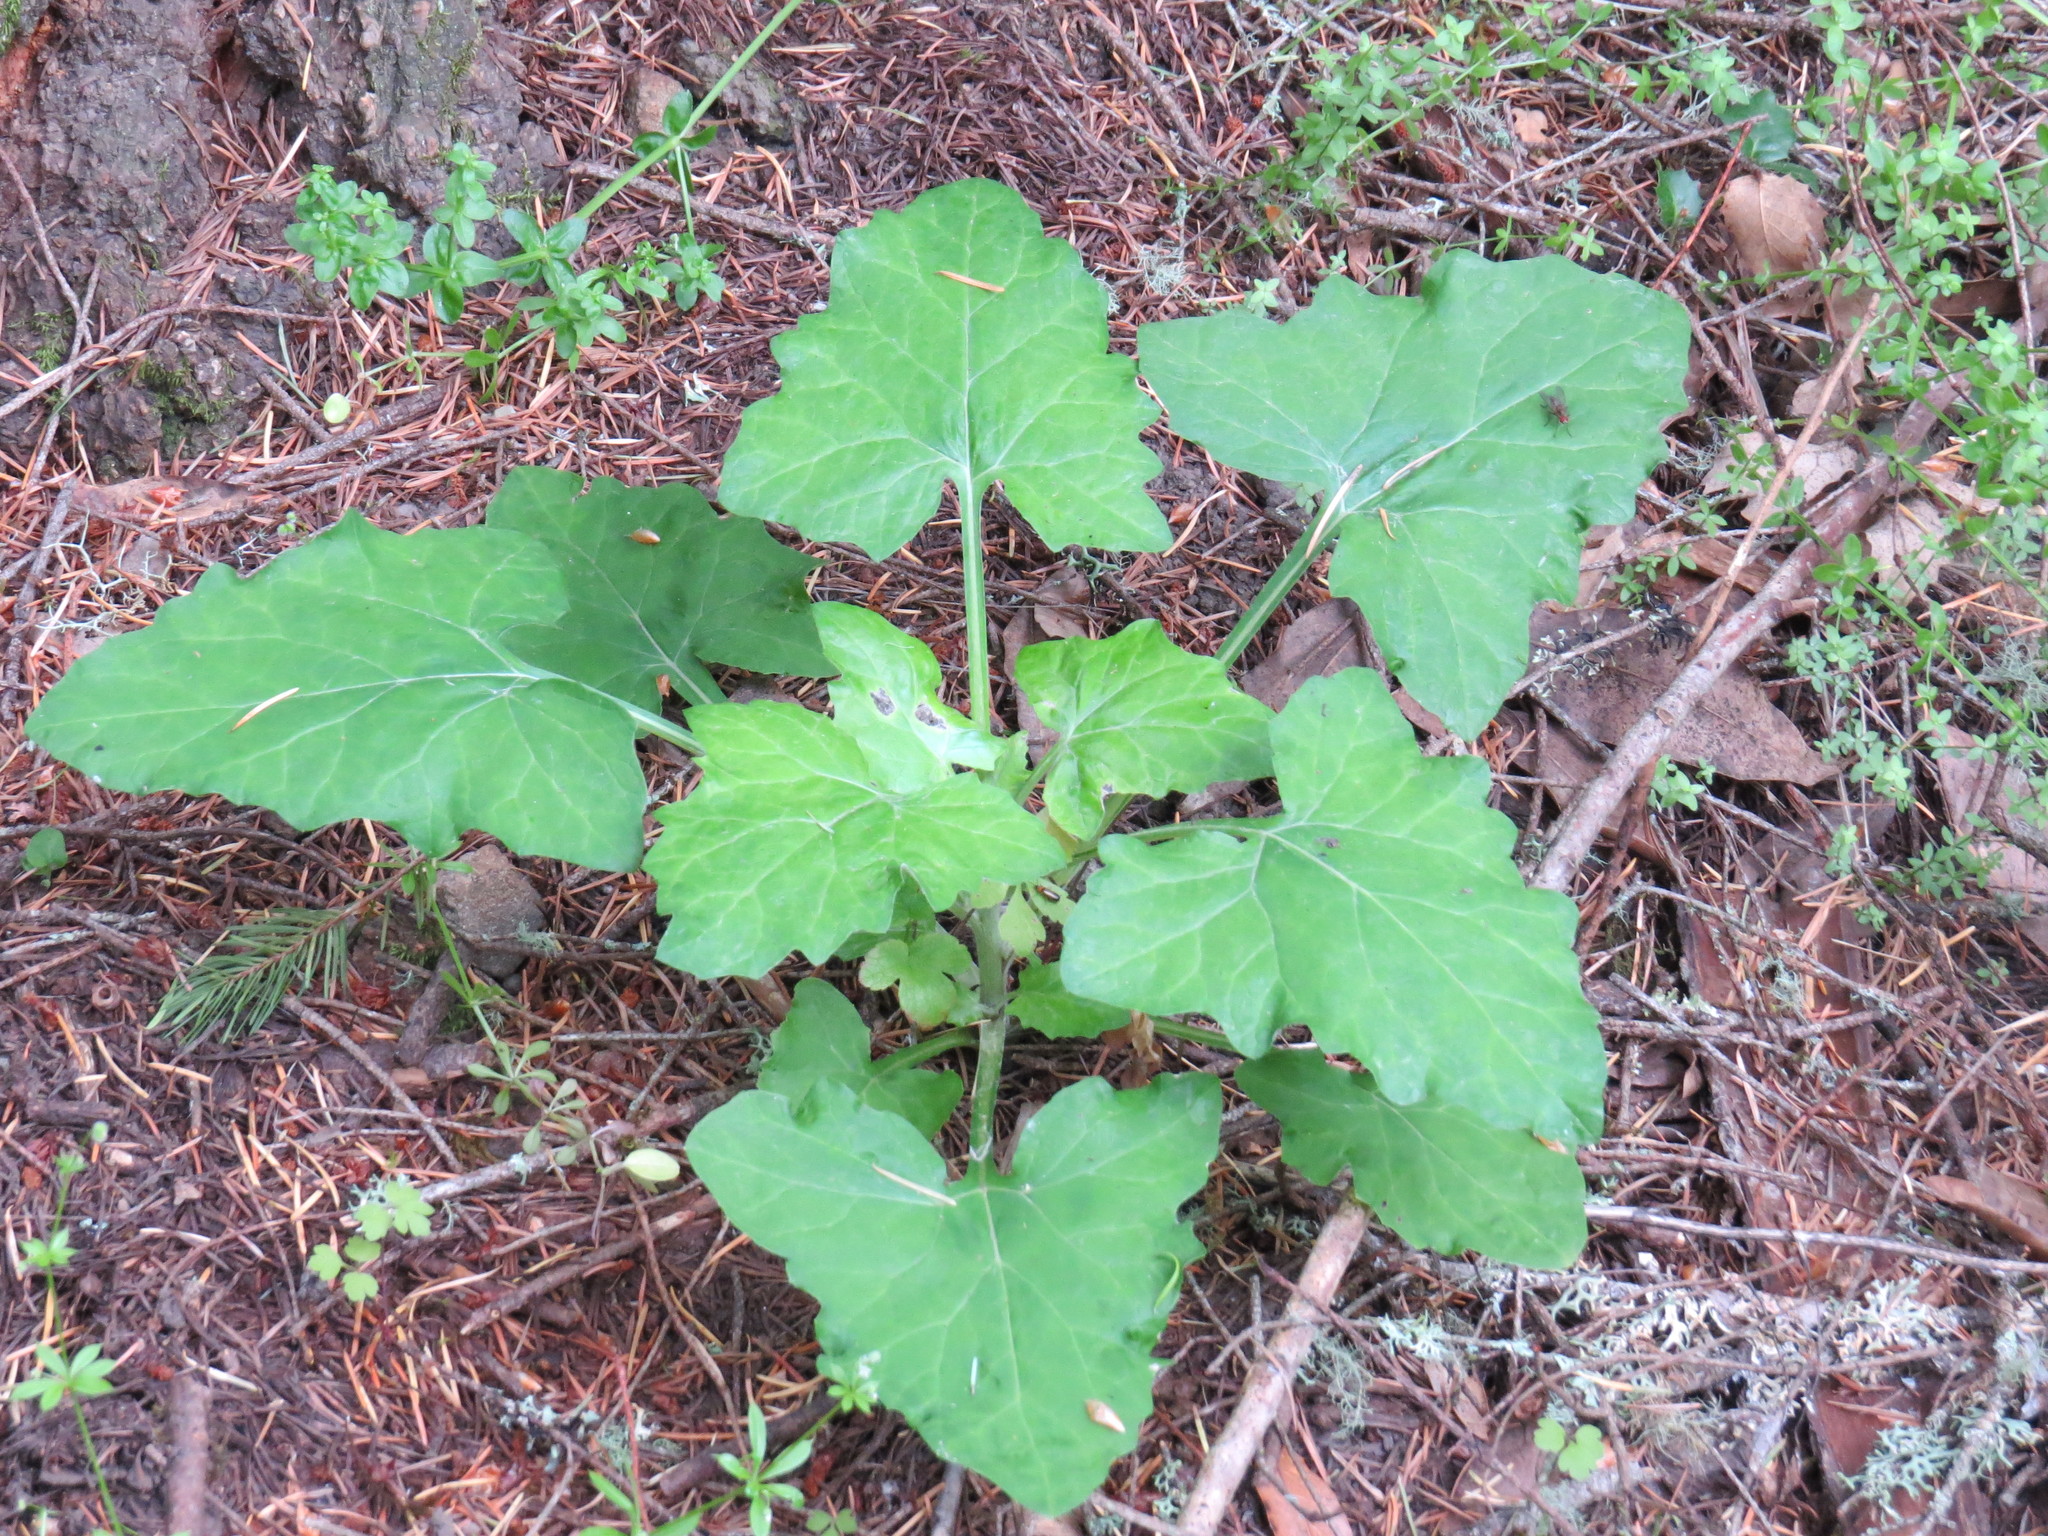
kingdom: Plantae
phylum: Tracheophyta
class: Magnoliopsida
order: Asterales
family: Asteraceae
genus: Adenocaulon
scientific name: Adenocaulon bicolor
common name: Trailplant
